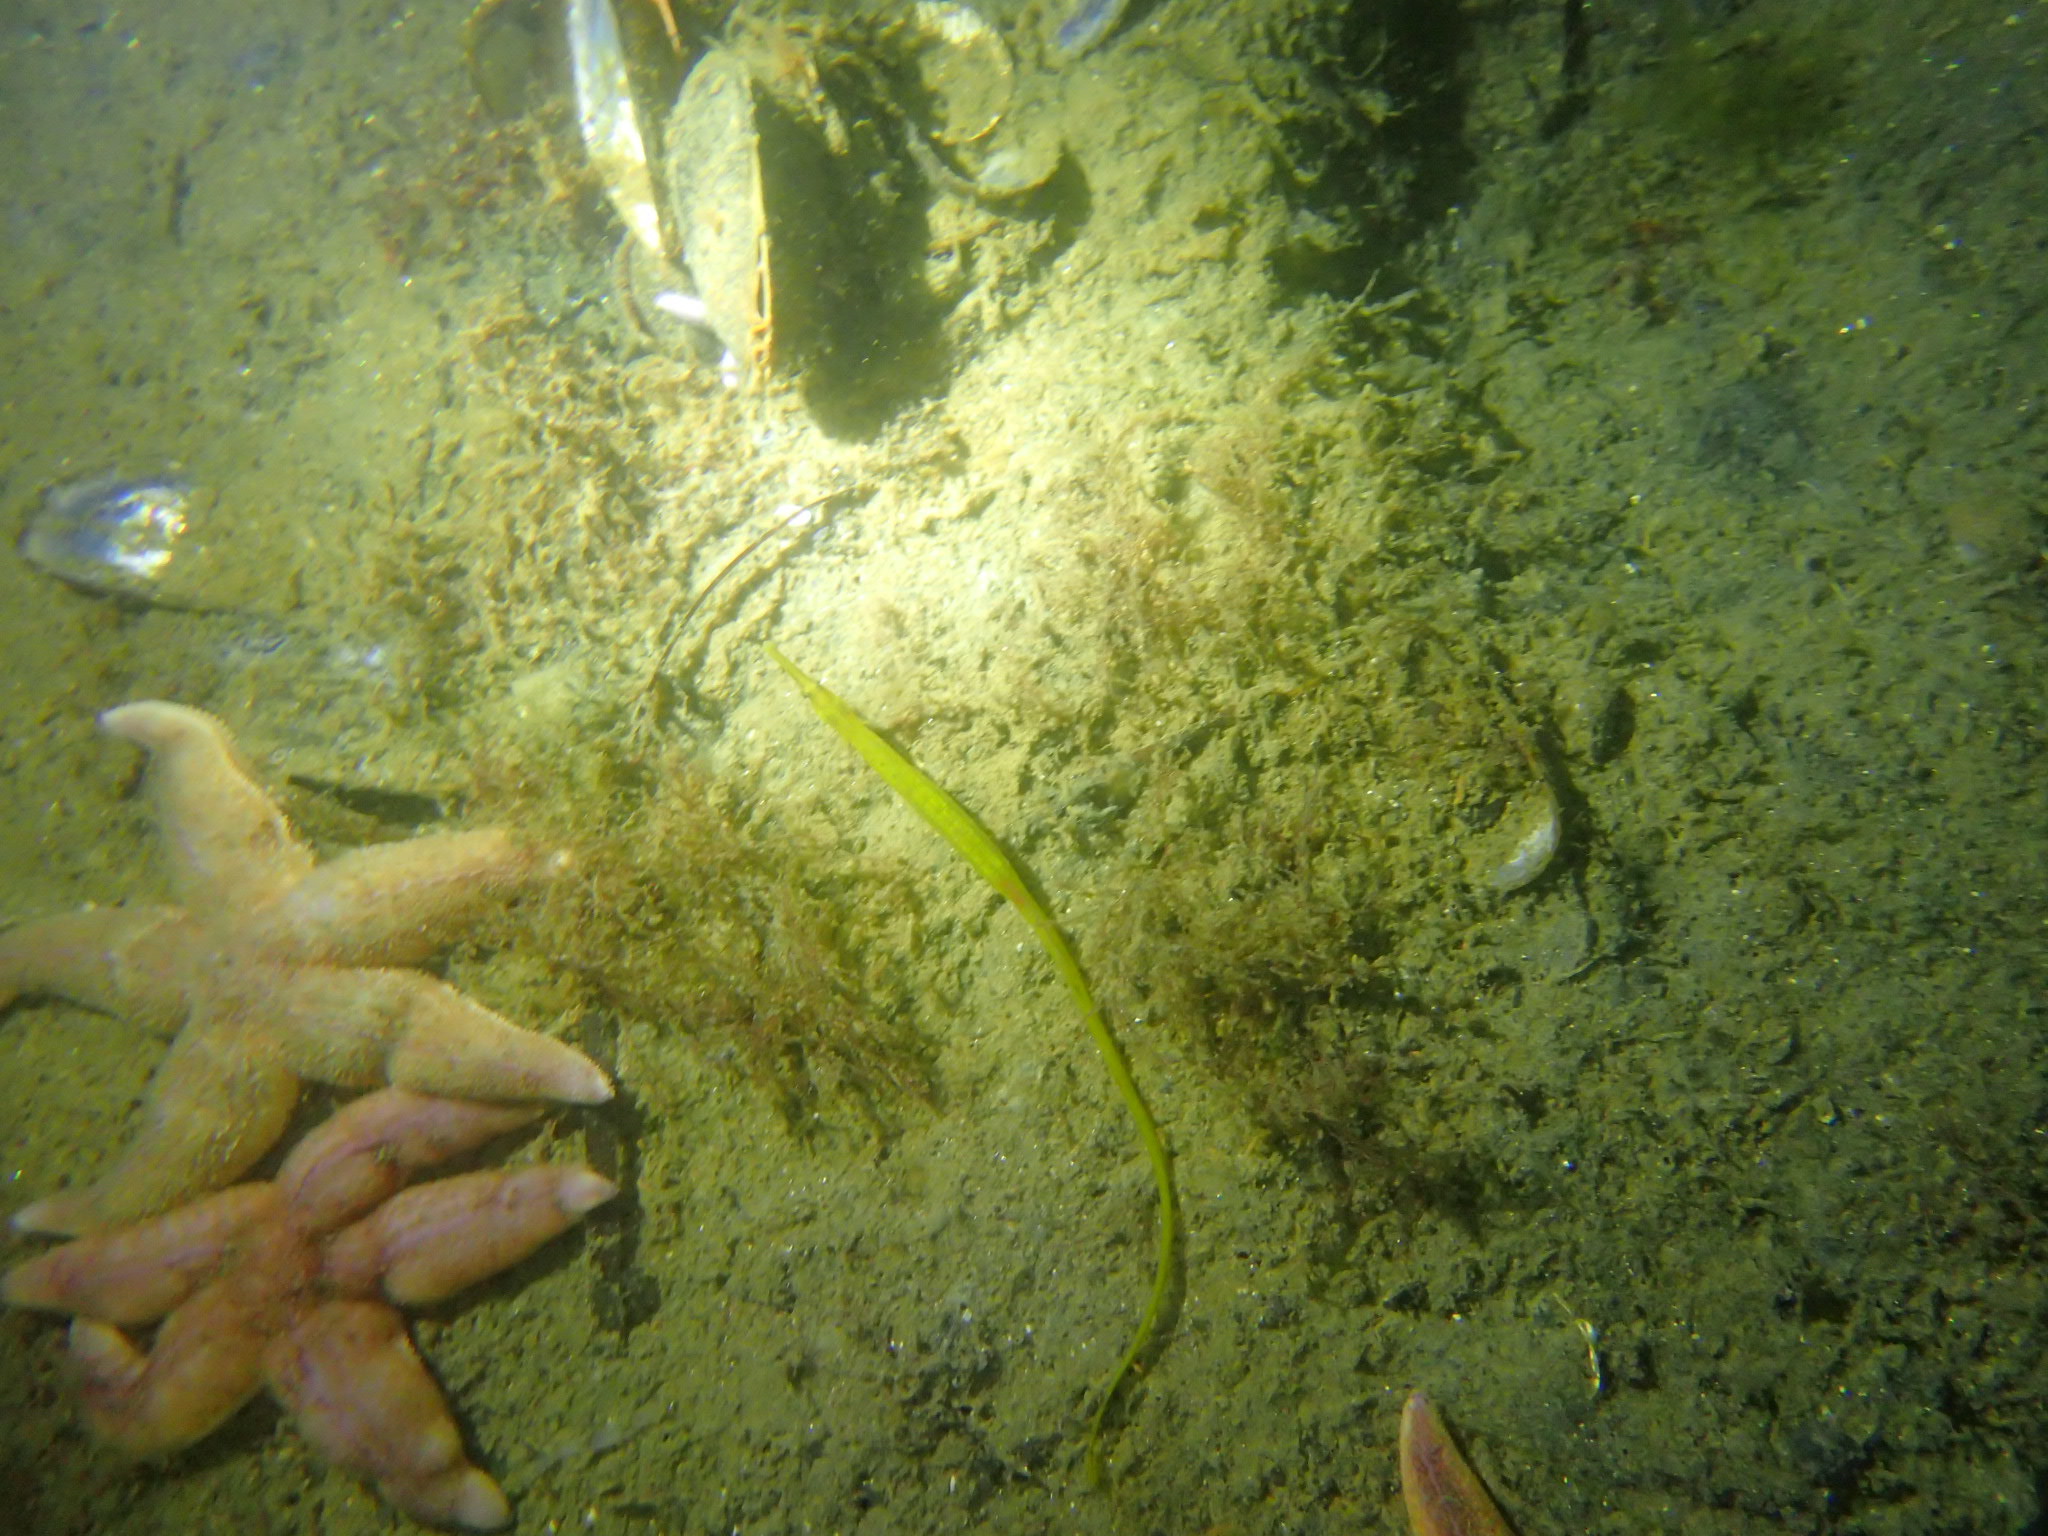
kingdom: Animalia
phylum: Chordata
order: Syngnathiformes
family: Syngnathidae
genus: Syngnathus
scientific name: Syngnathus typhle
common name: Deep-snouted pipefish
